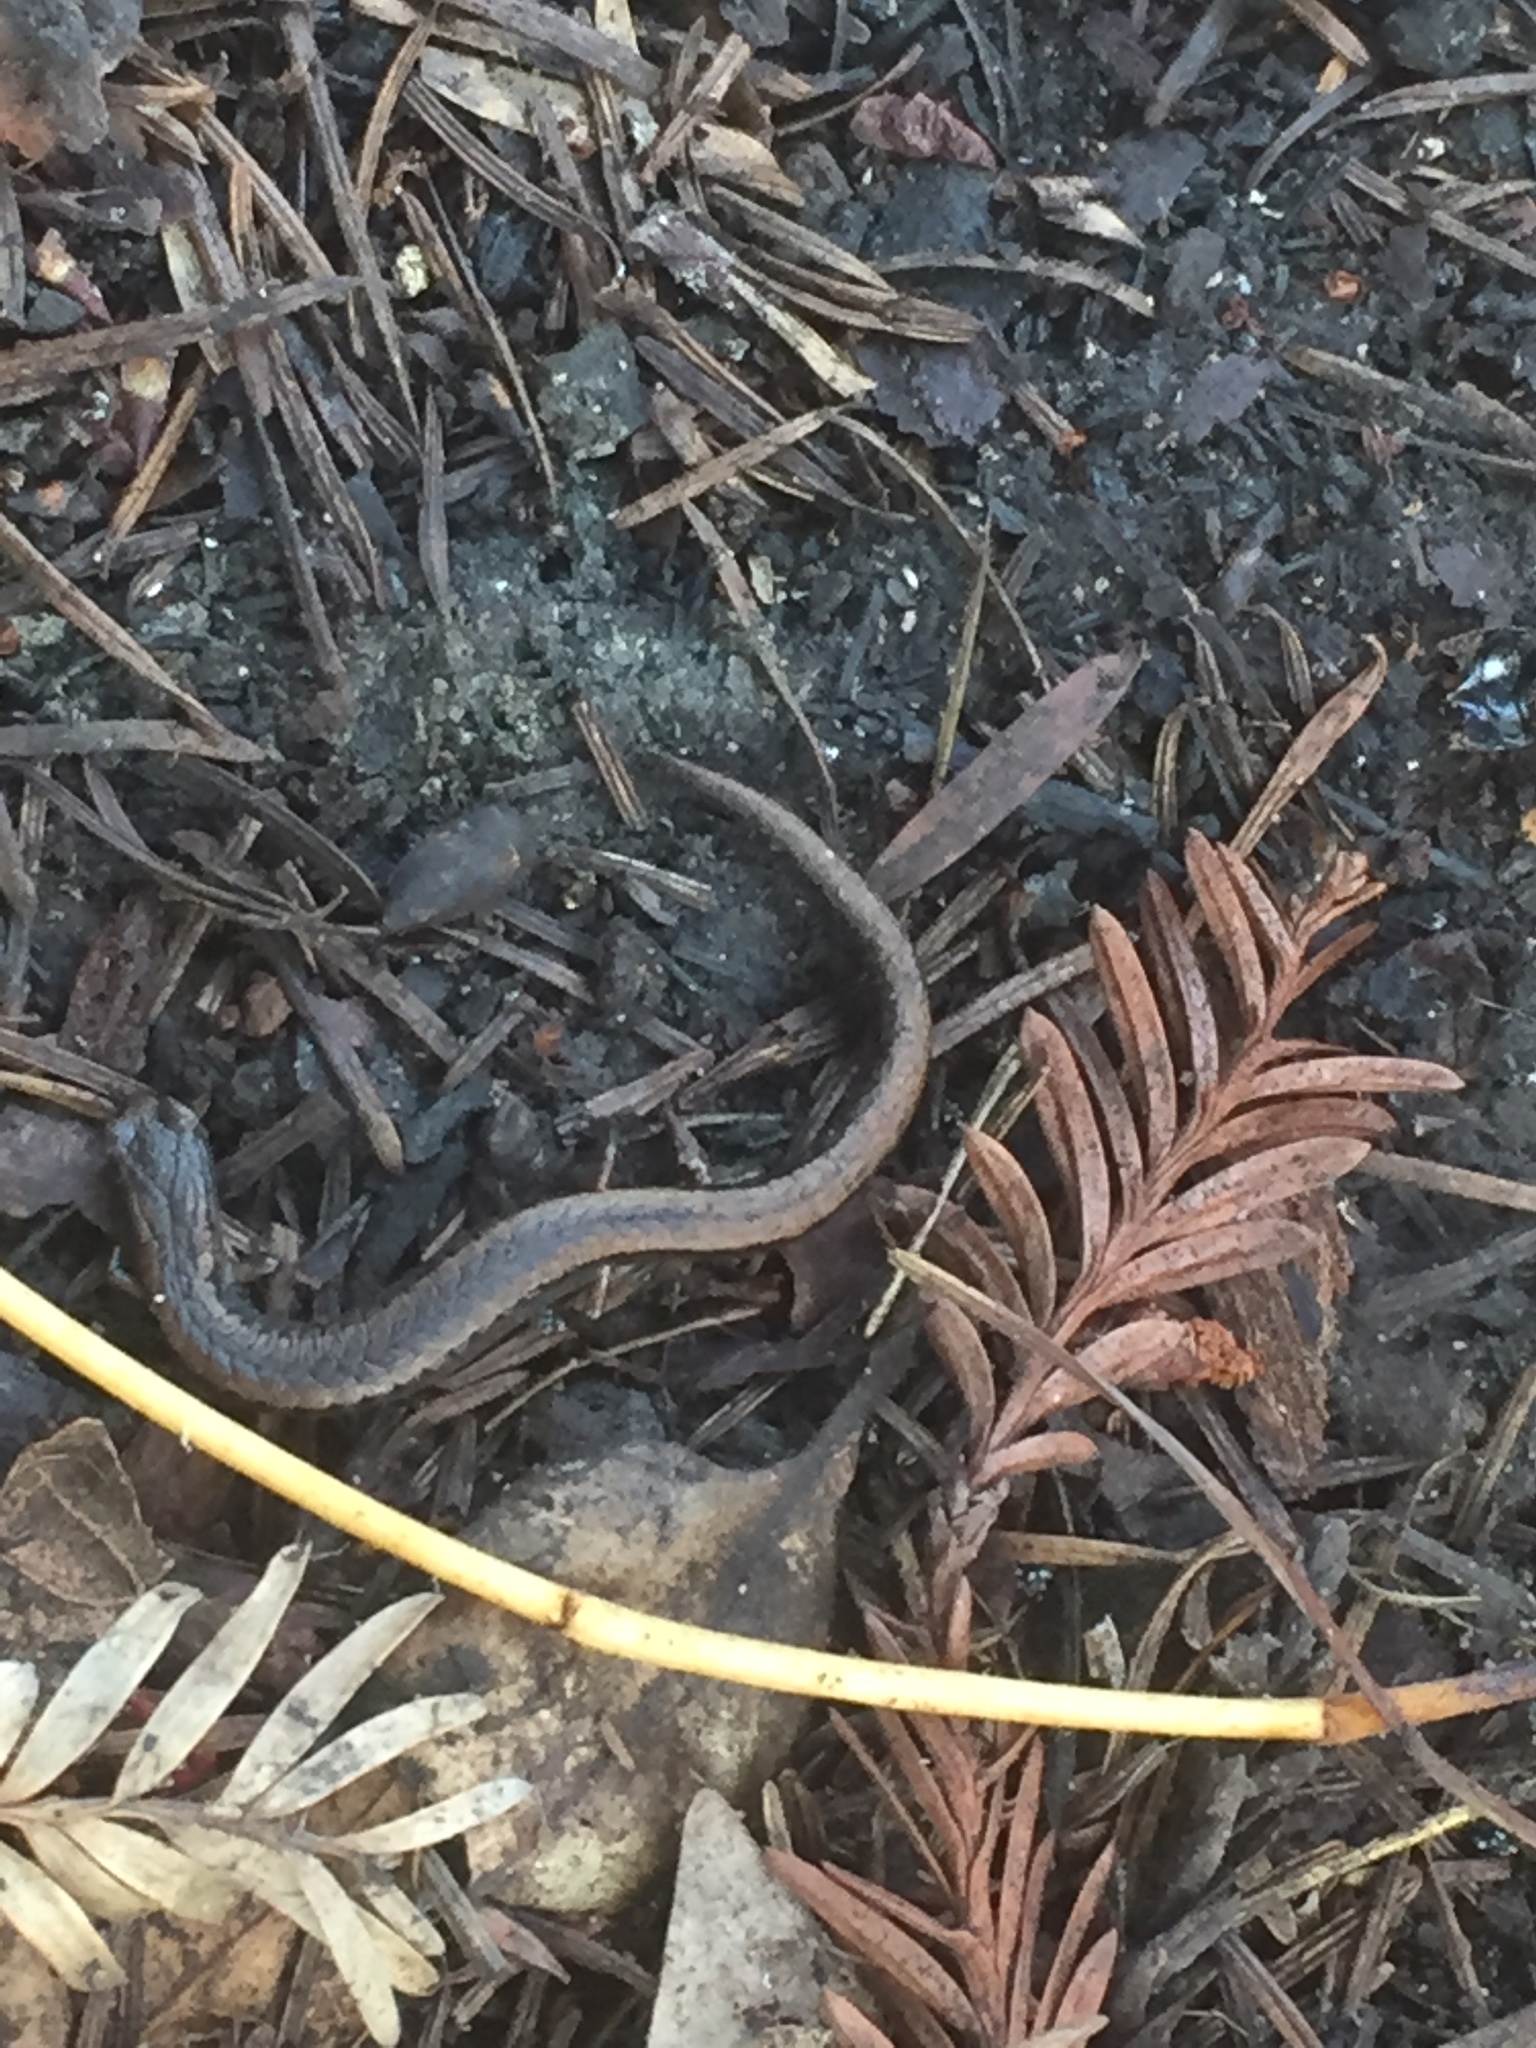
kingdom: Animalia
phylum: Chordata
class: Amphibia
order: Caudata
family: Plethodontidae
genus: Batrachoseps
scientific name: Batrachoseps attenuatus
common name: California slender salamander
